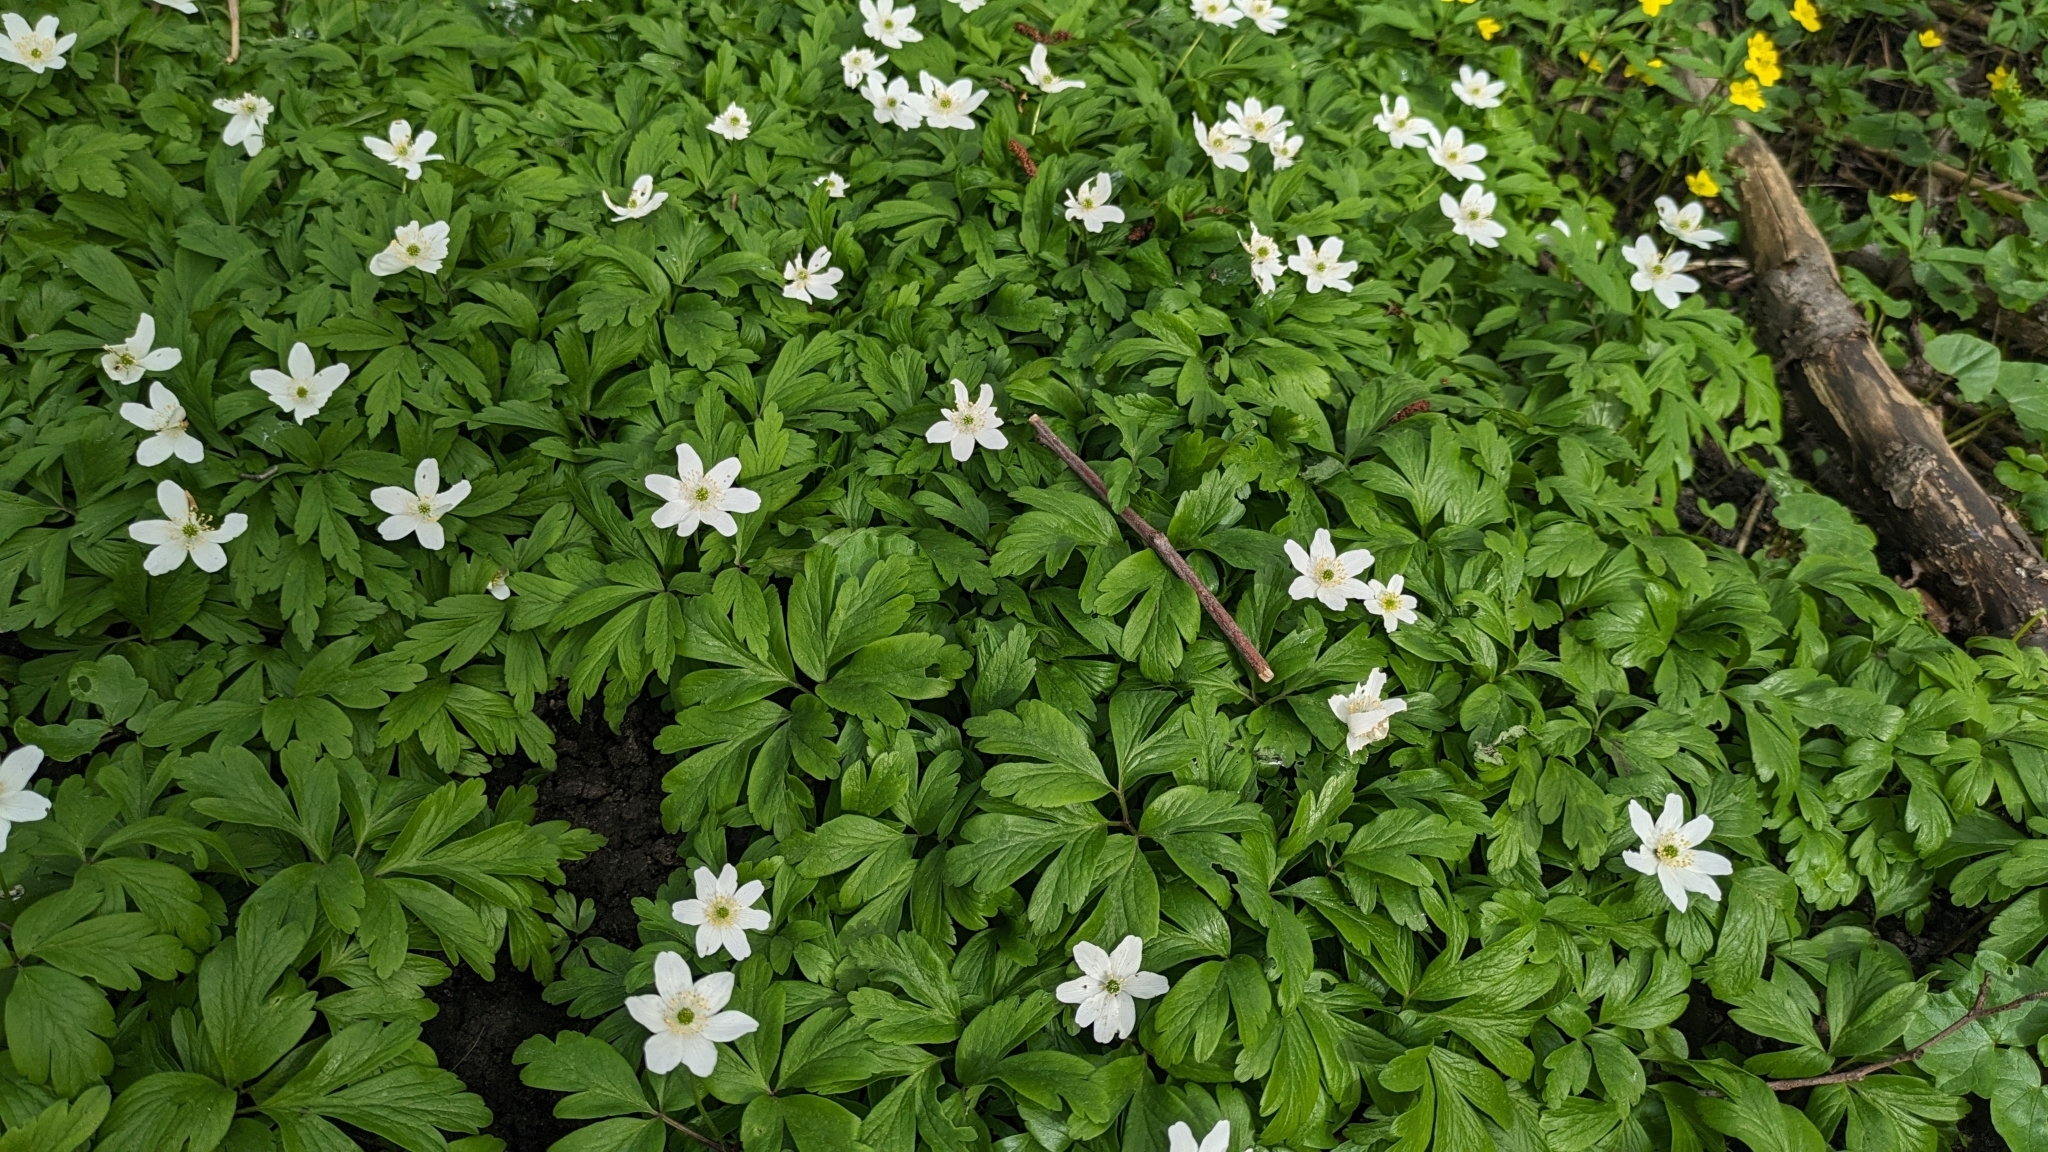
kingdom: Plantae
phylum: Tracheophyta
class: Magnoliopsida
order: Ranunculales
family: Ranunculaceae
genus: Anemone
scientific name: Anemone nemorosa
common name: Wood anemone
